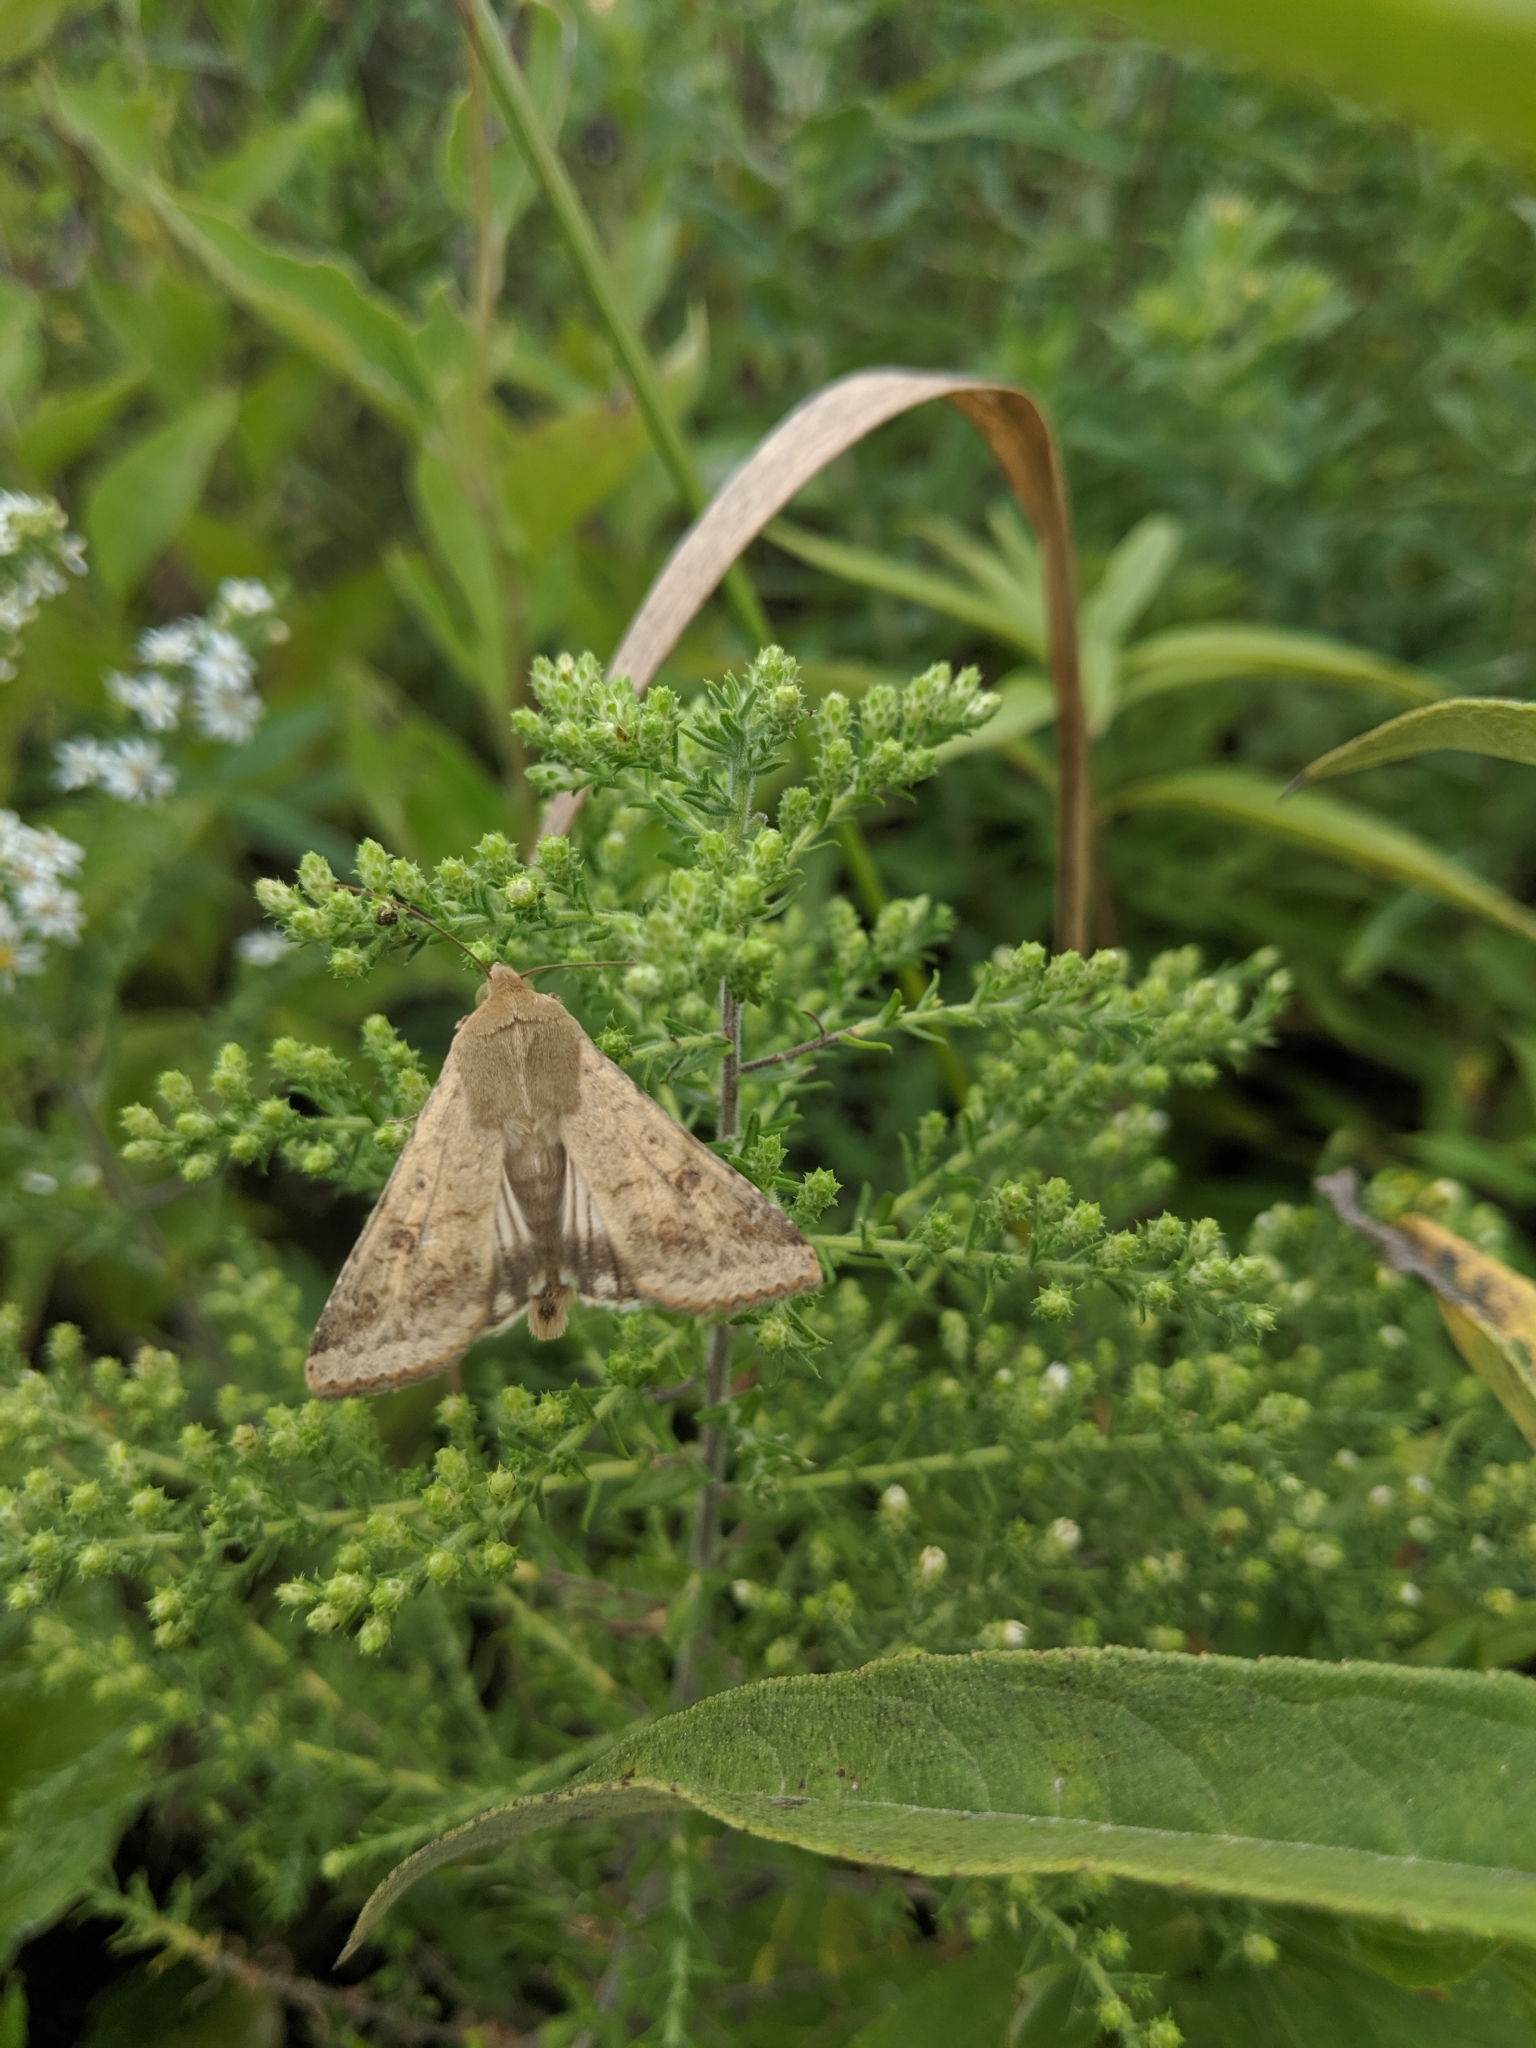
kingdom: Animalia
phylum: Arthropoda
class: Insecta
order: Lepidoptera
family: Noctuidae
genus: Helicoverpa
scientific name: Helicoverpa zea
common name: Bollworm
